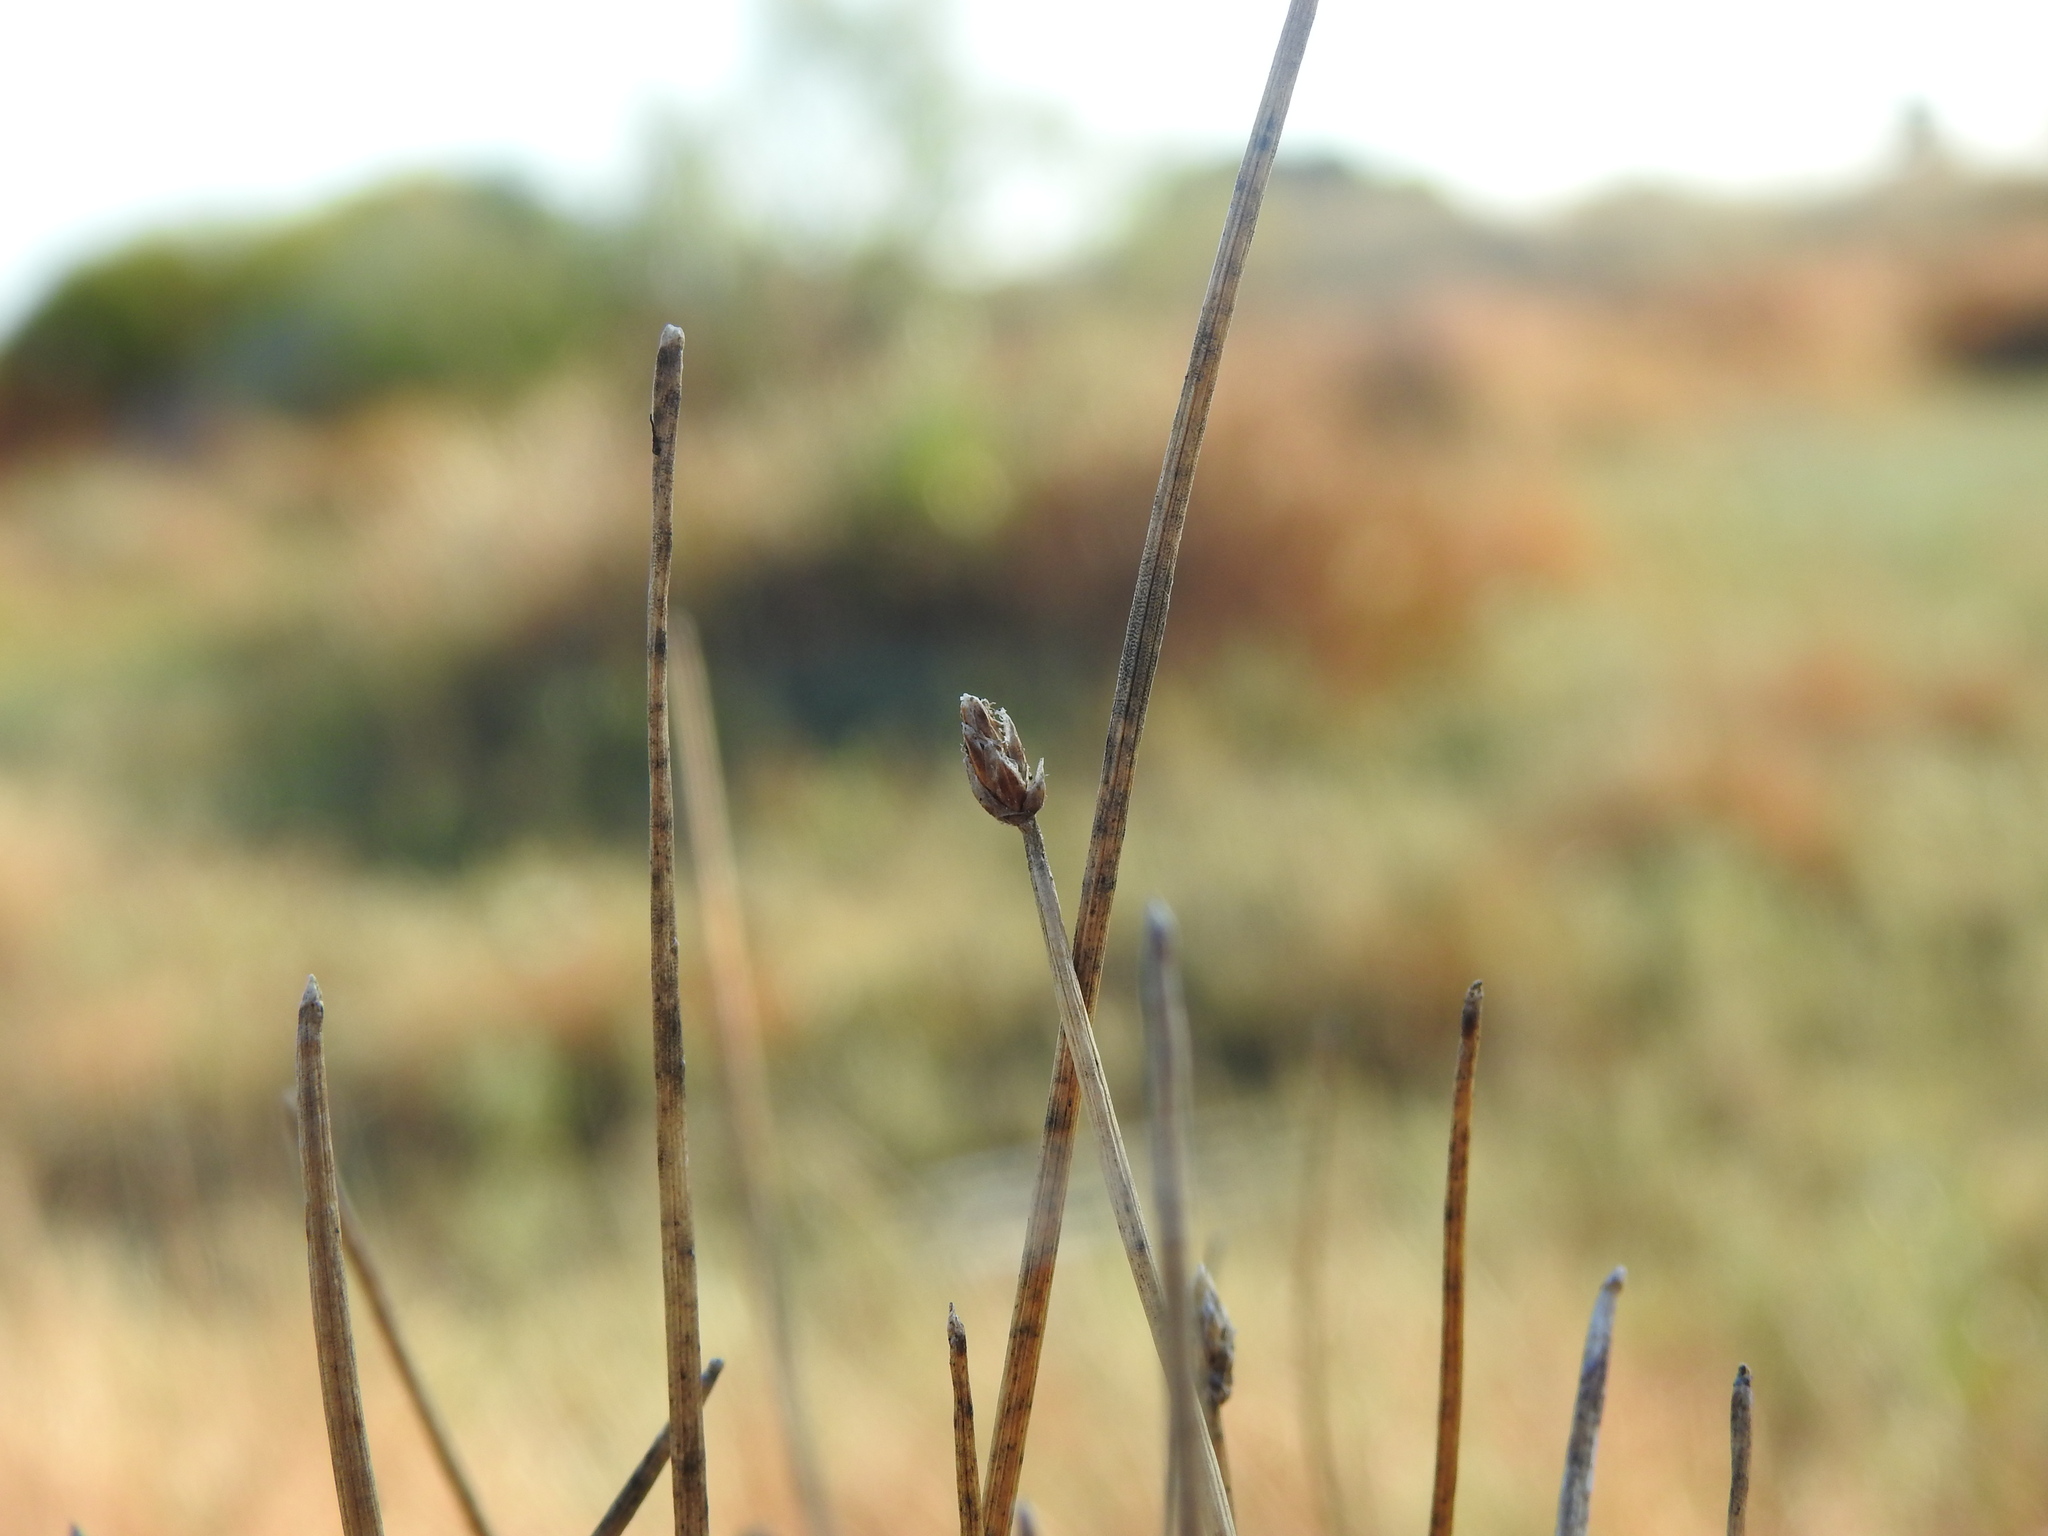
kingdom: Plantae
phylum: Tracheophyta
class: Liliopsida
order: Poales
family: Cyperaceae
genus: Eleocharis
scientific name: Eleocharis uniglumis
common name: Slender spike-rush
